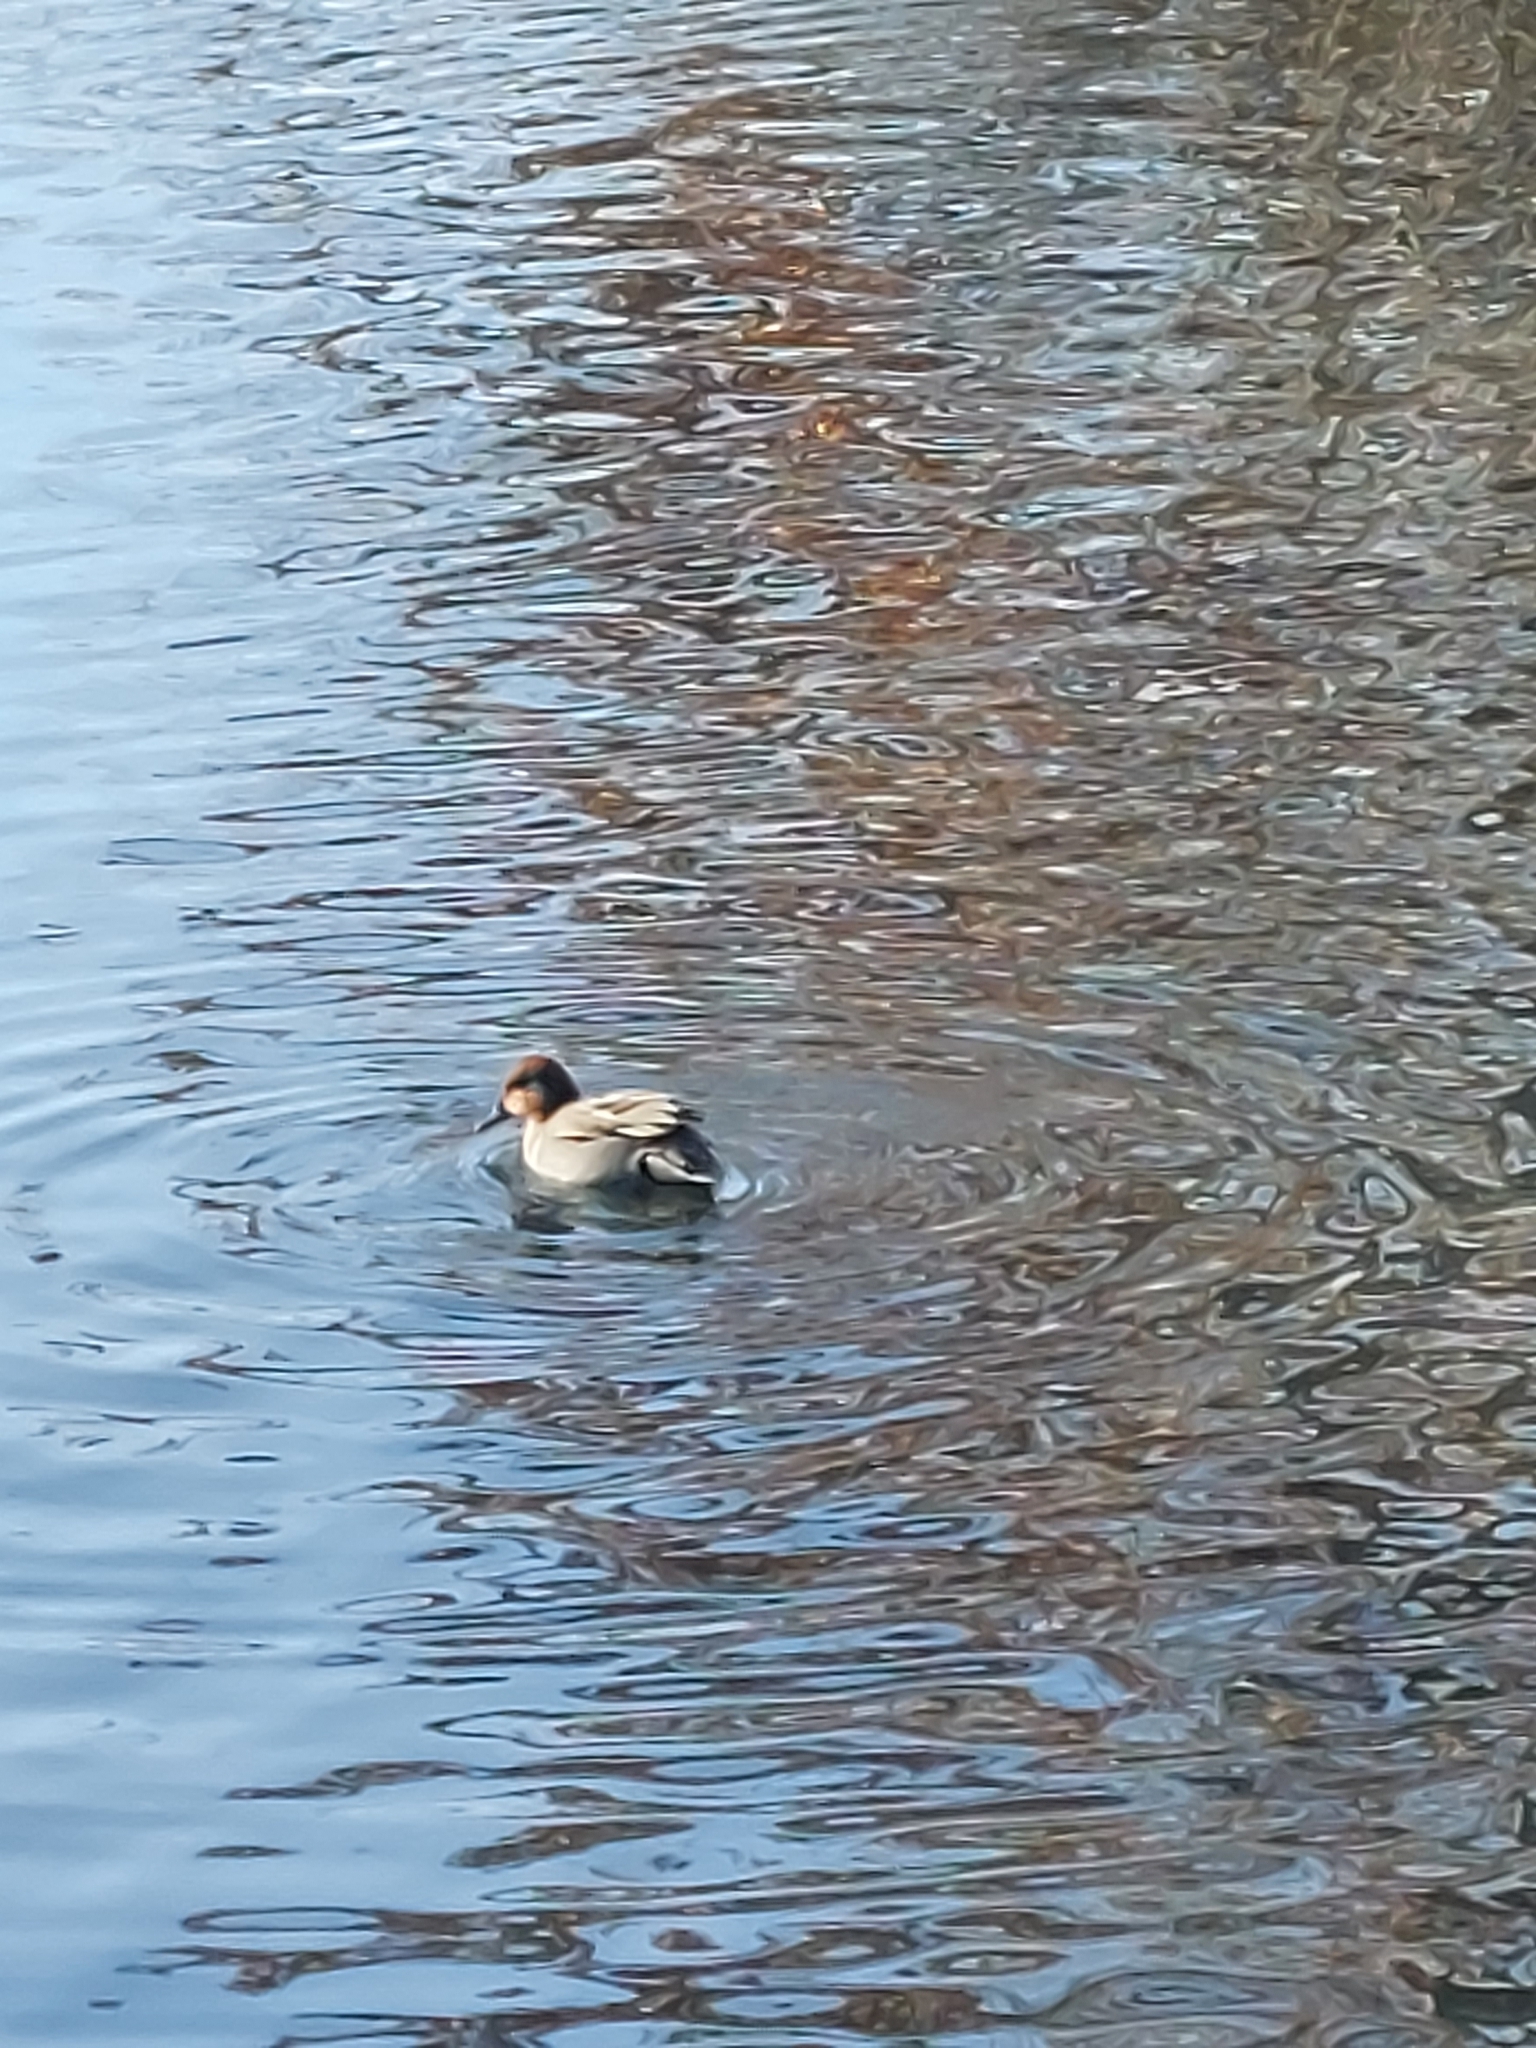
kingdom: Animalia
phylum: Chordata
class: Aves
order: Anseriformes
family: Anatidae
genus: Anas
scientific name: Anas crecca
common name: Eurasian teal
